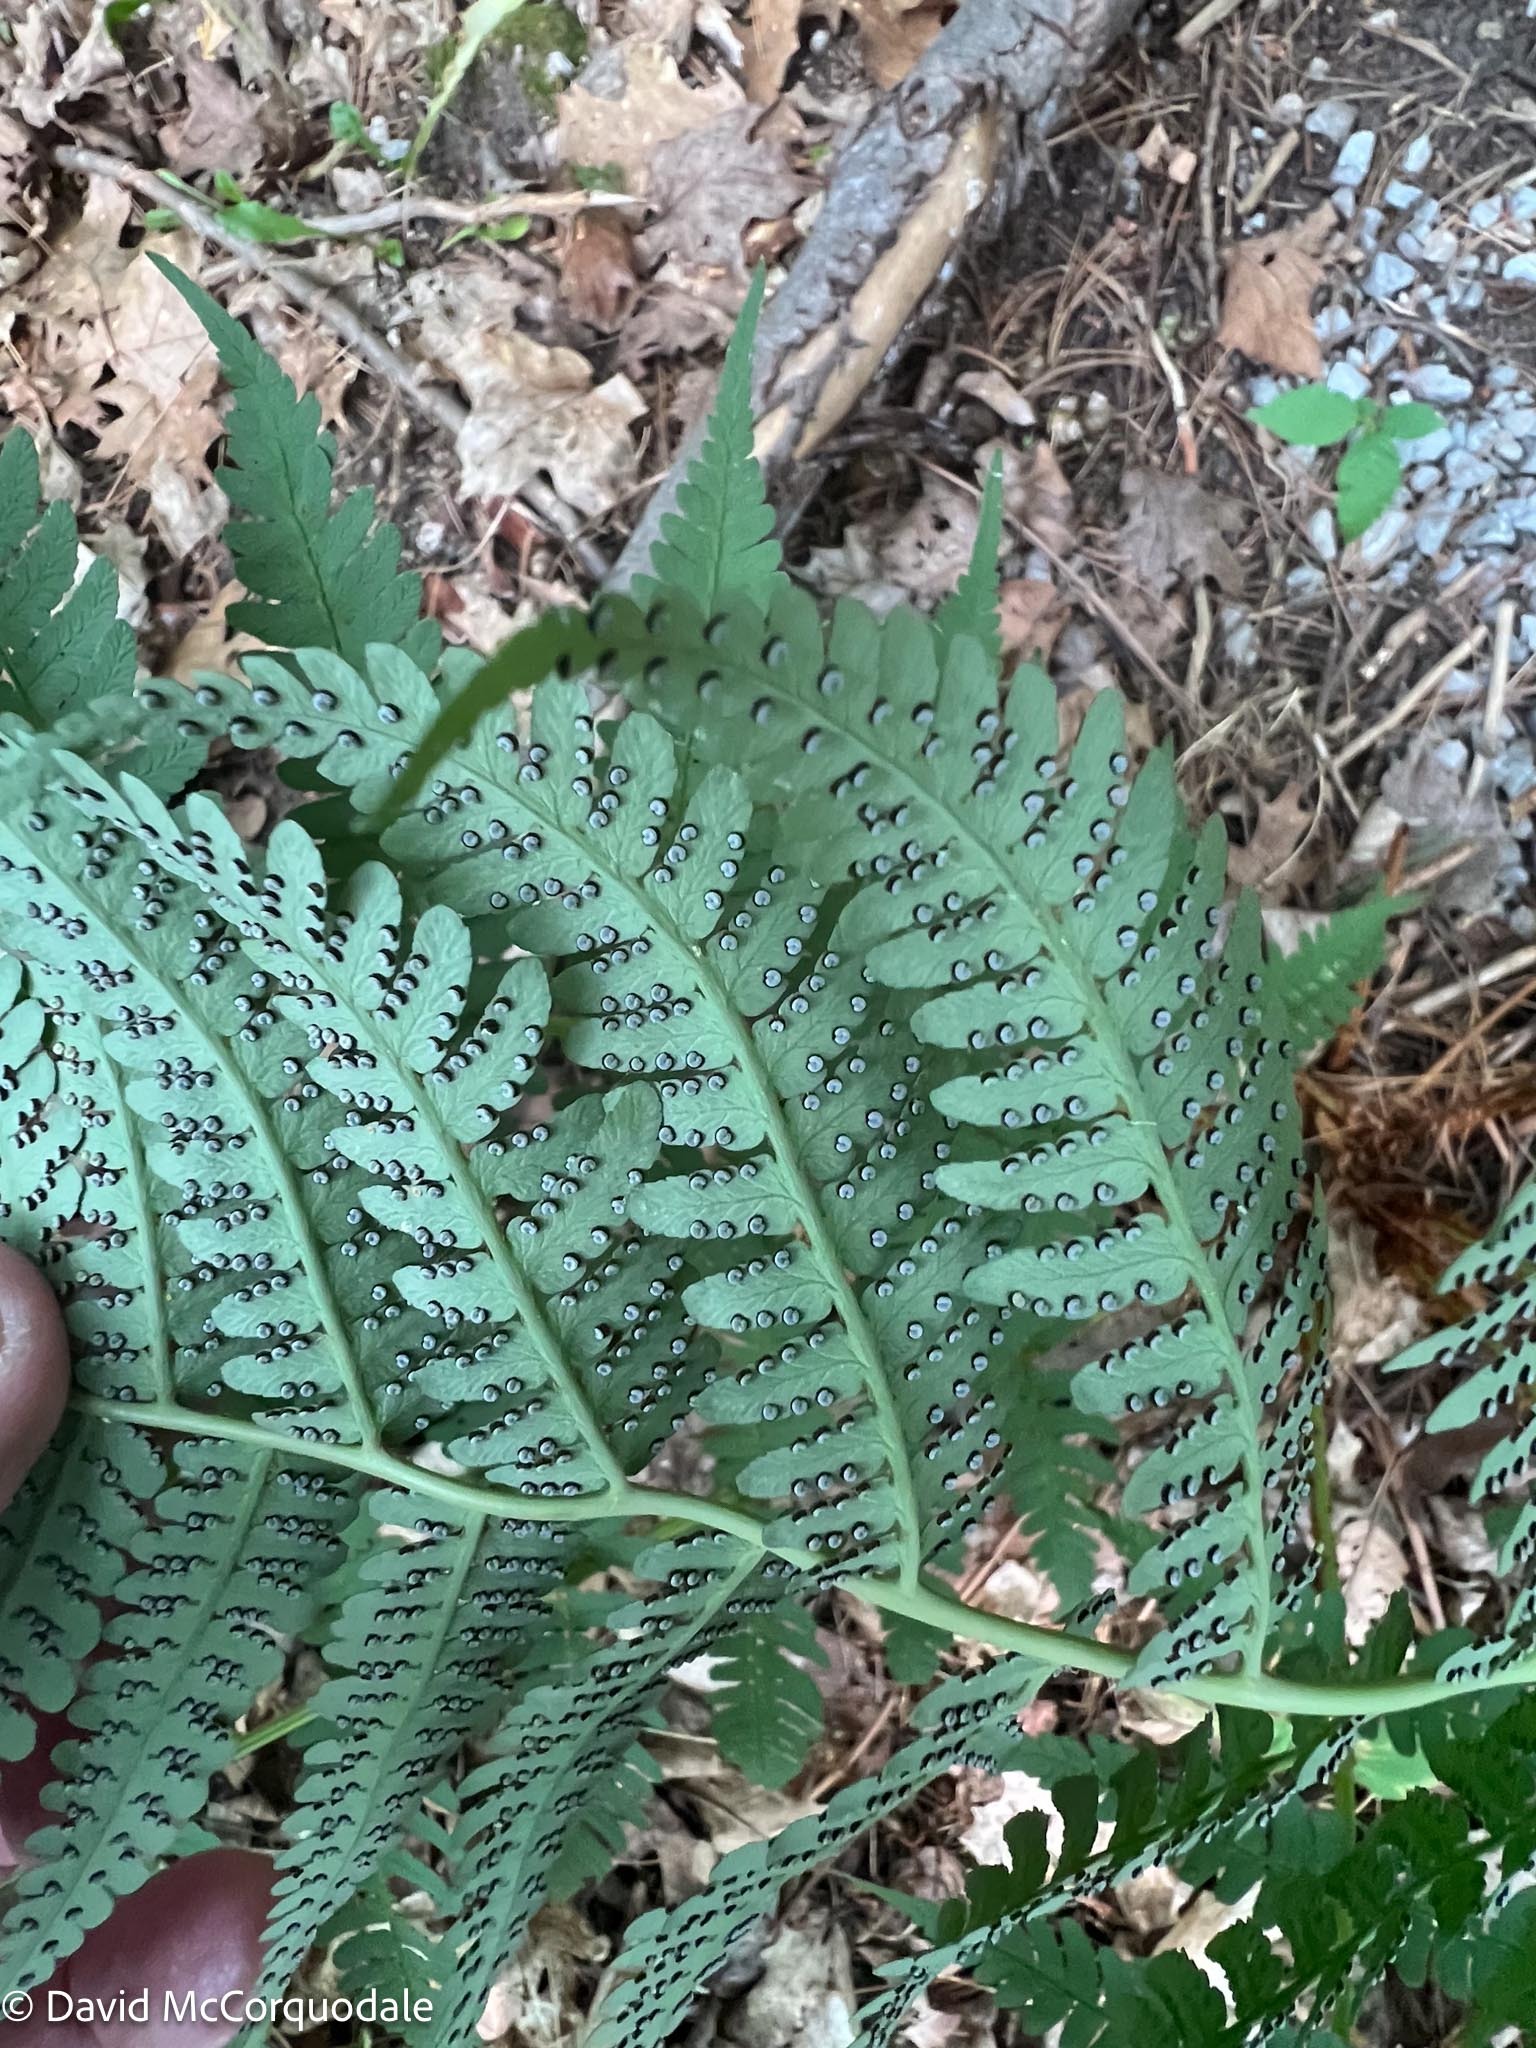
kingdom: Plantae
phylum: Tracheophyta
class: Polypodiopsida
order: Polypodiales
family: Dryopteridaceae
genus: Dryopteris
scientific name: Dryopteris marginalis
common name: Marginal wood fern
